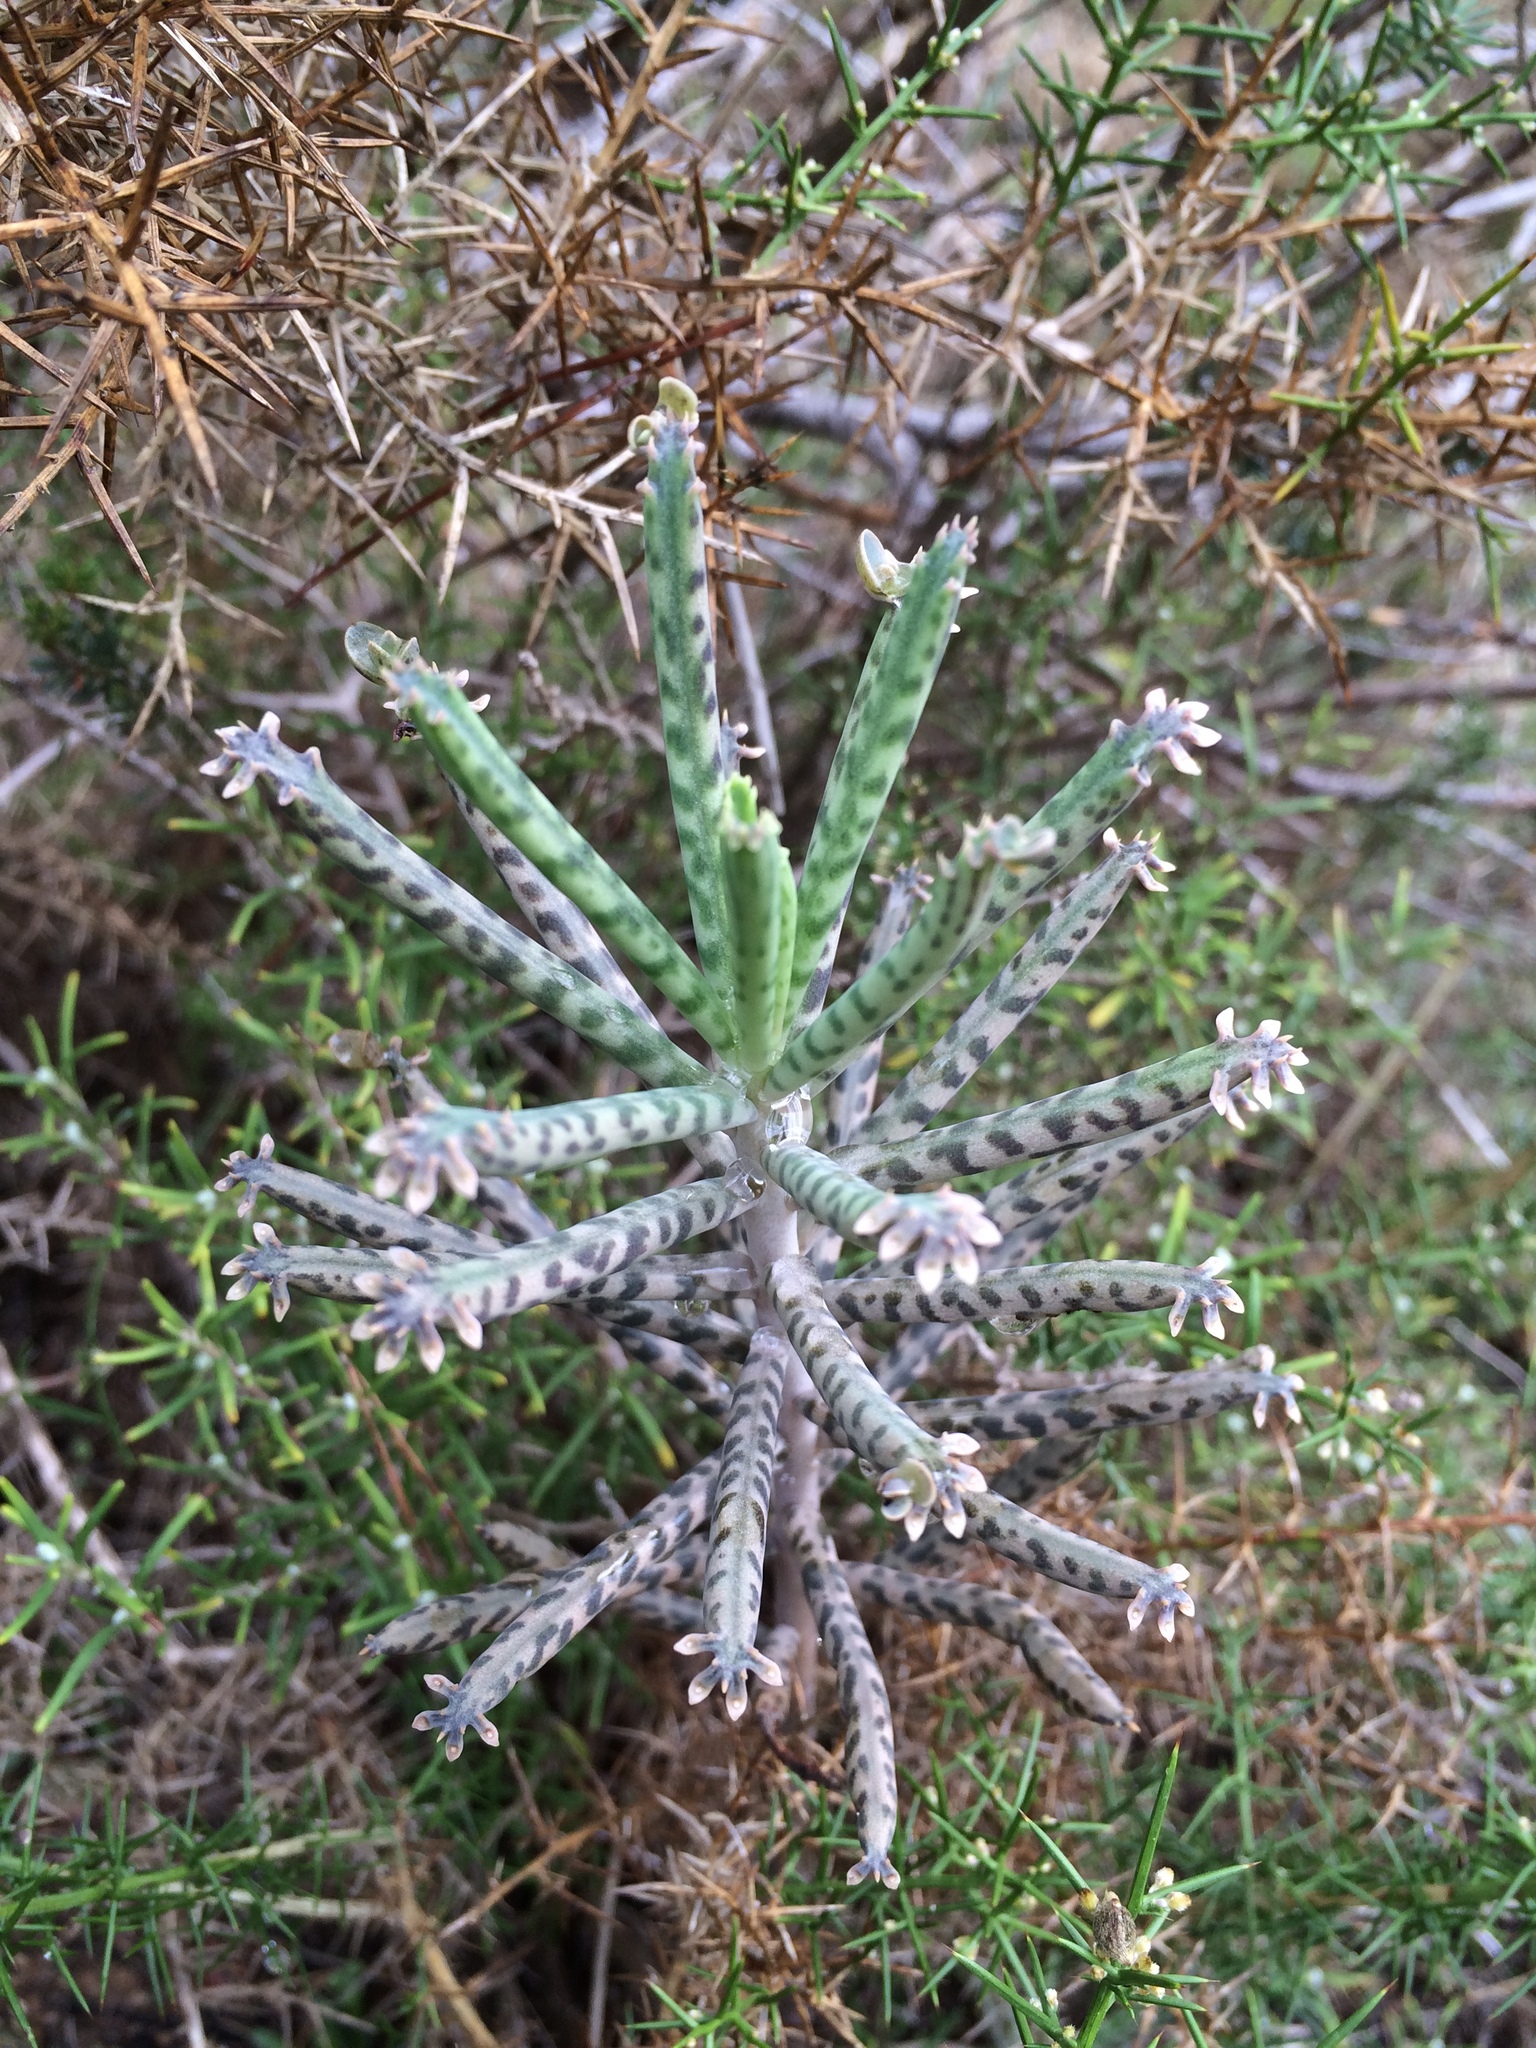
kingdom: Plantae
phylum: Tracheophyta
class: Magnoliopsida
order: Saxifragales
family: Crassulaceae
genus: Kalanchoe
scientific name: Kalanchoe delagoensis
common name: Chandelier plant
